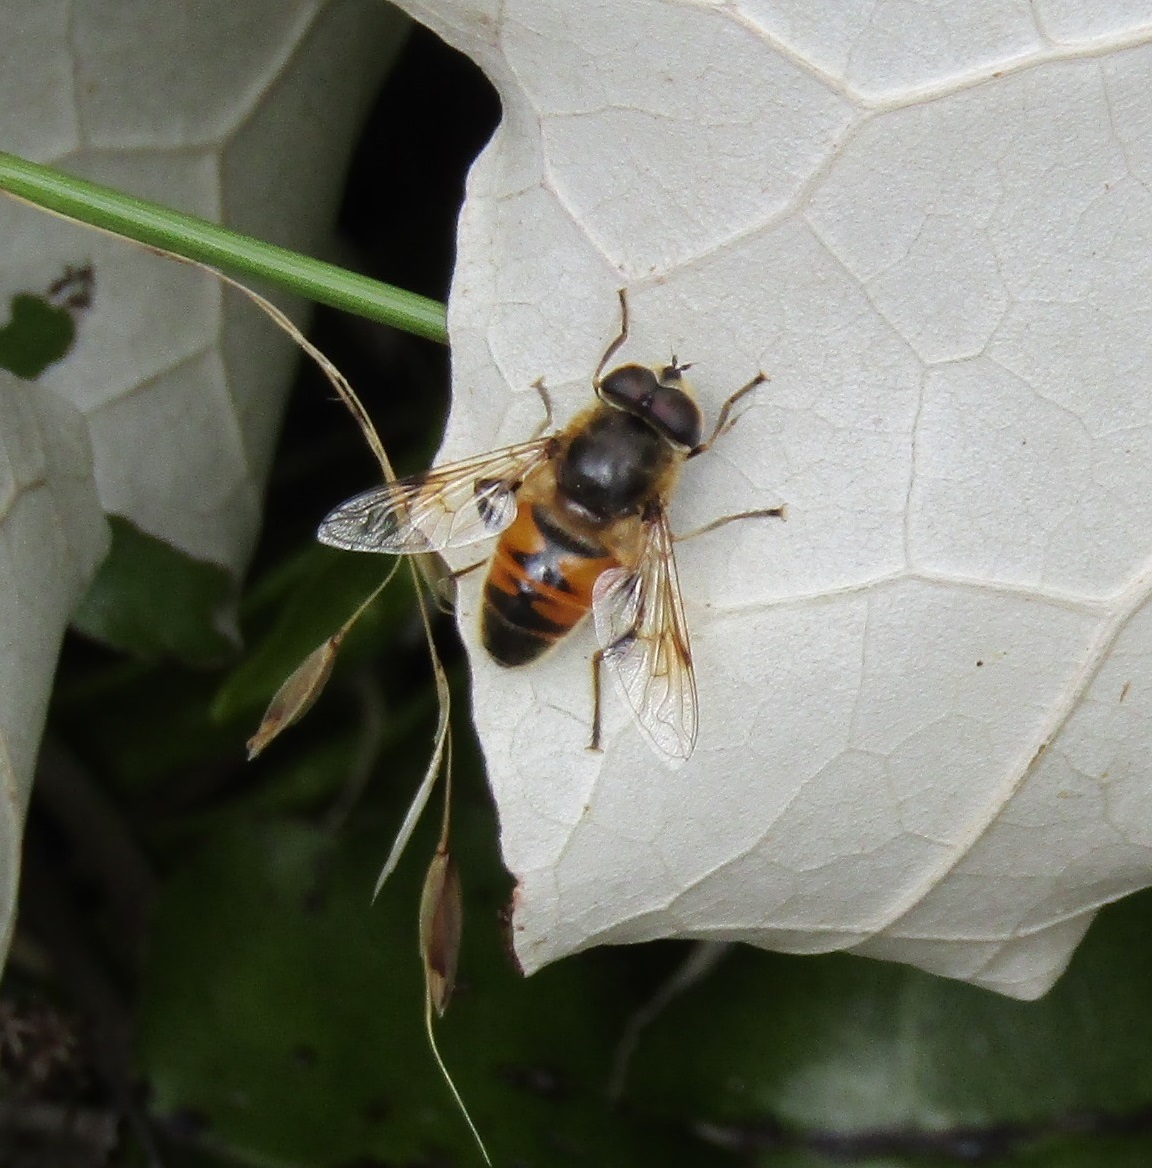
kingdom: Animalia
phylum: Arthropoda
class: Insecta
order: Diptera
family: Syrphidae
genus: Eristalis
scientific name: Eristalis tenax
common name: Drone fly
